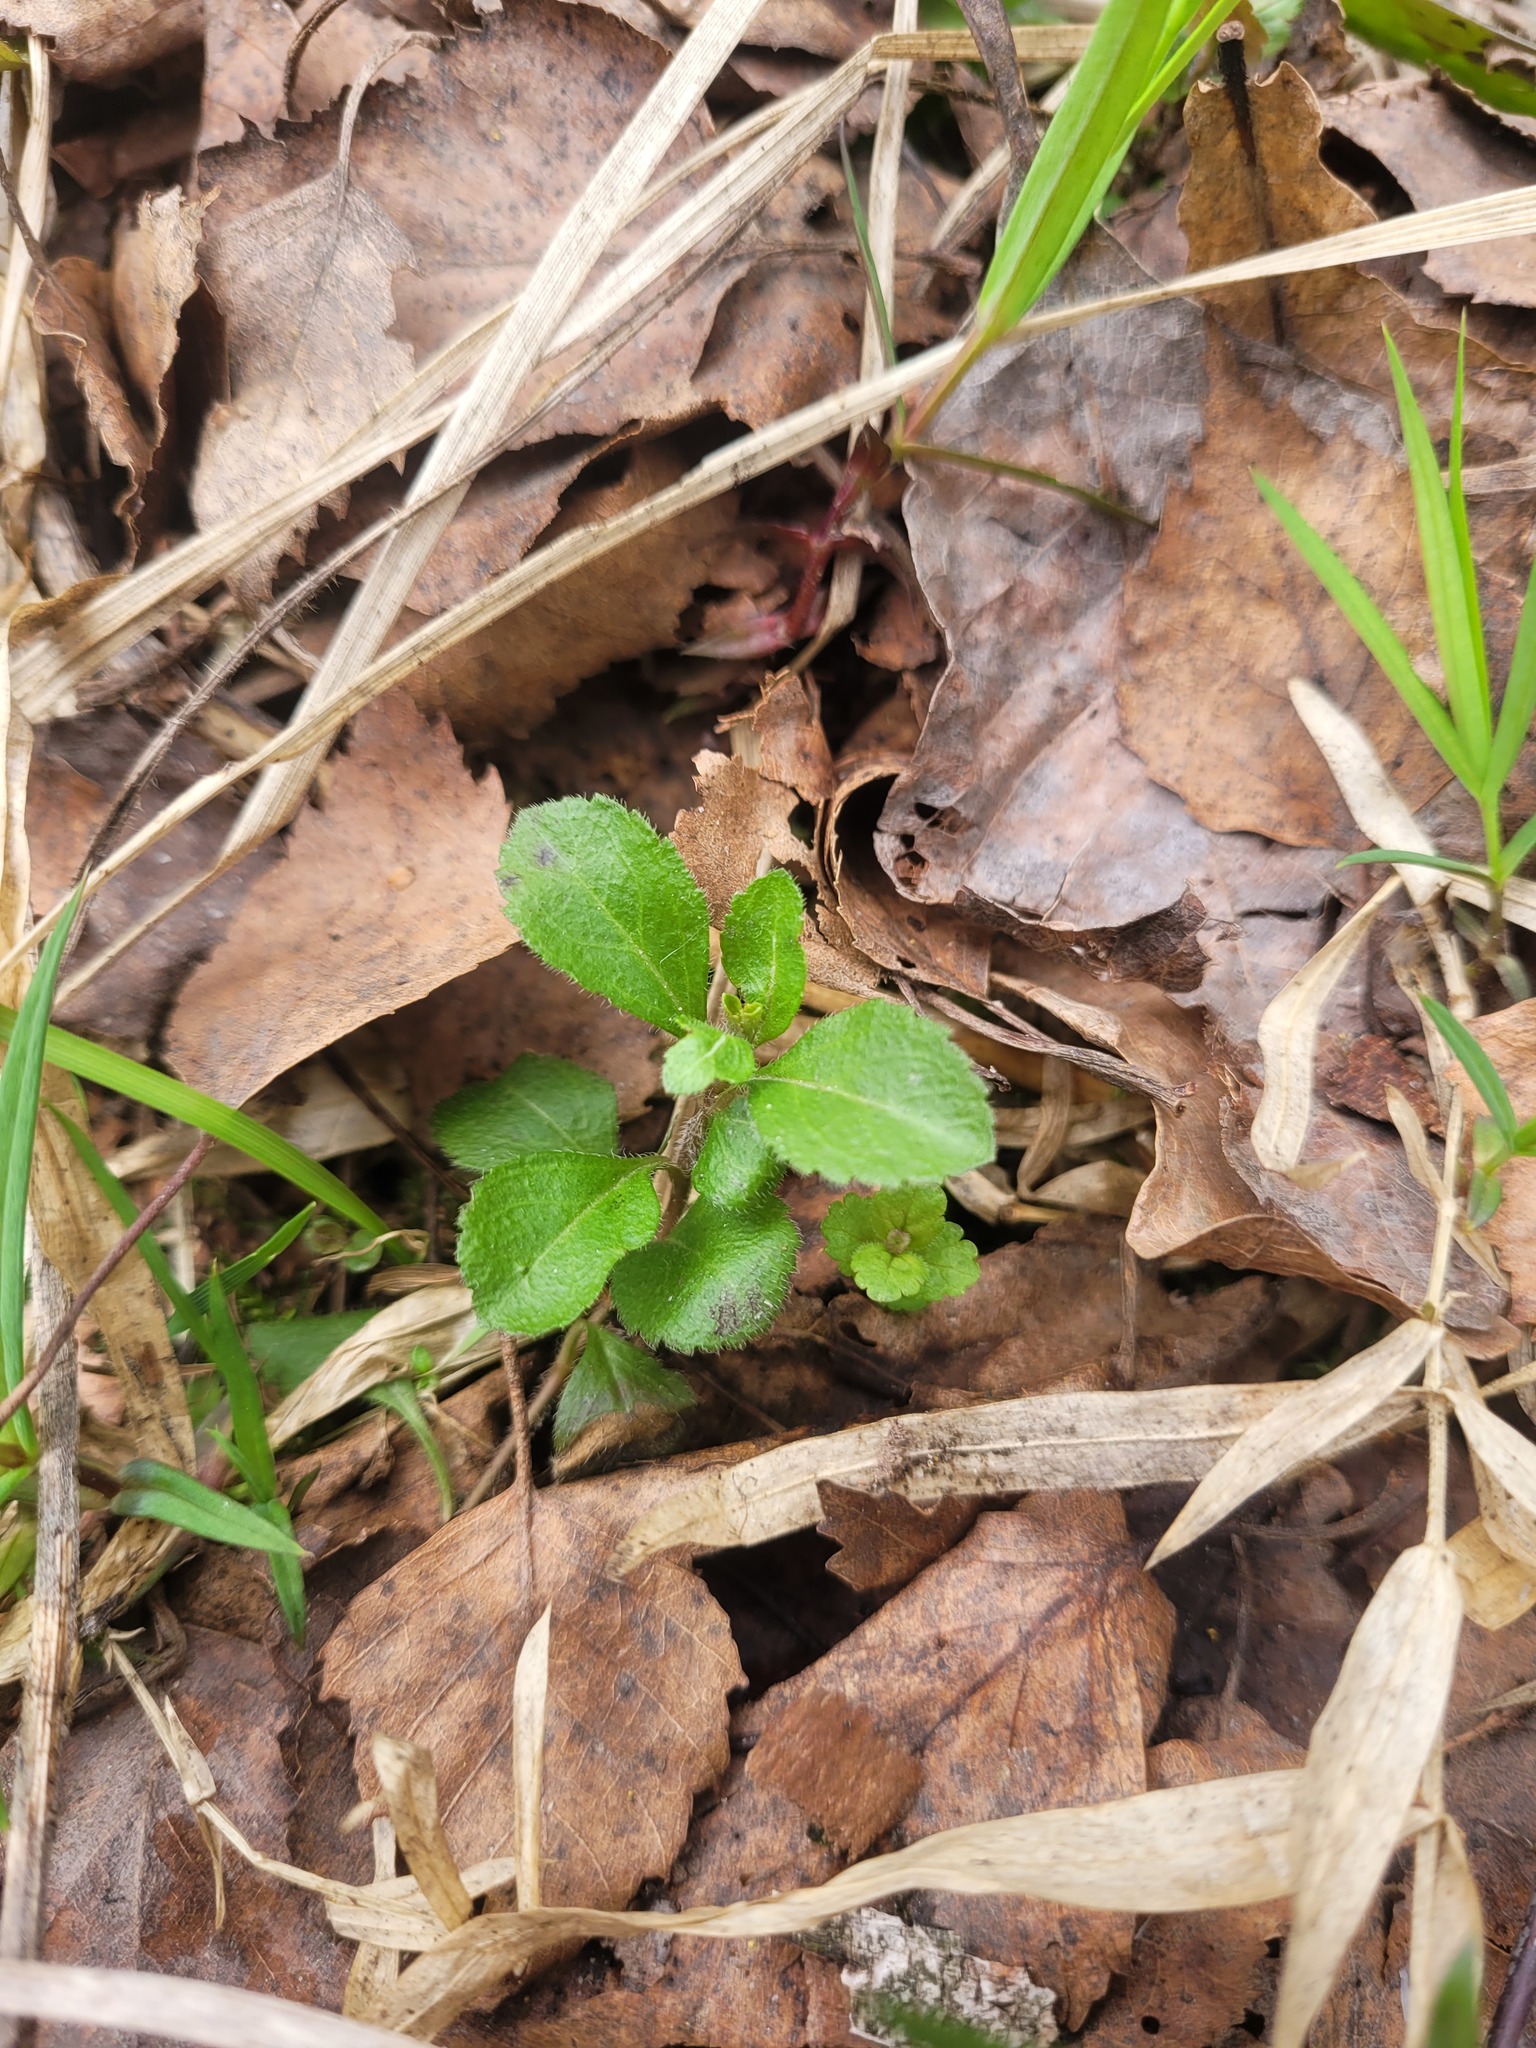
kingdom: Plantae
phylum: Tracheophyta
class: Magnoliopsida
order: Lamiales
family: Plantaginaceae
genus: Veronica
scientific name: Veronica officinalis
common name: Common speedwell
